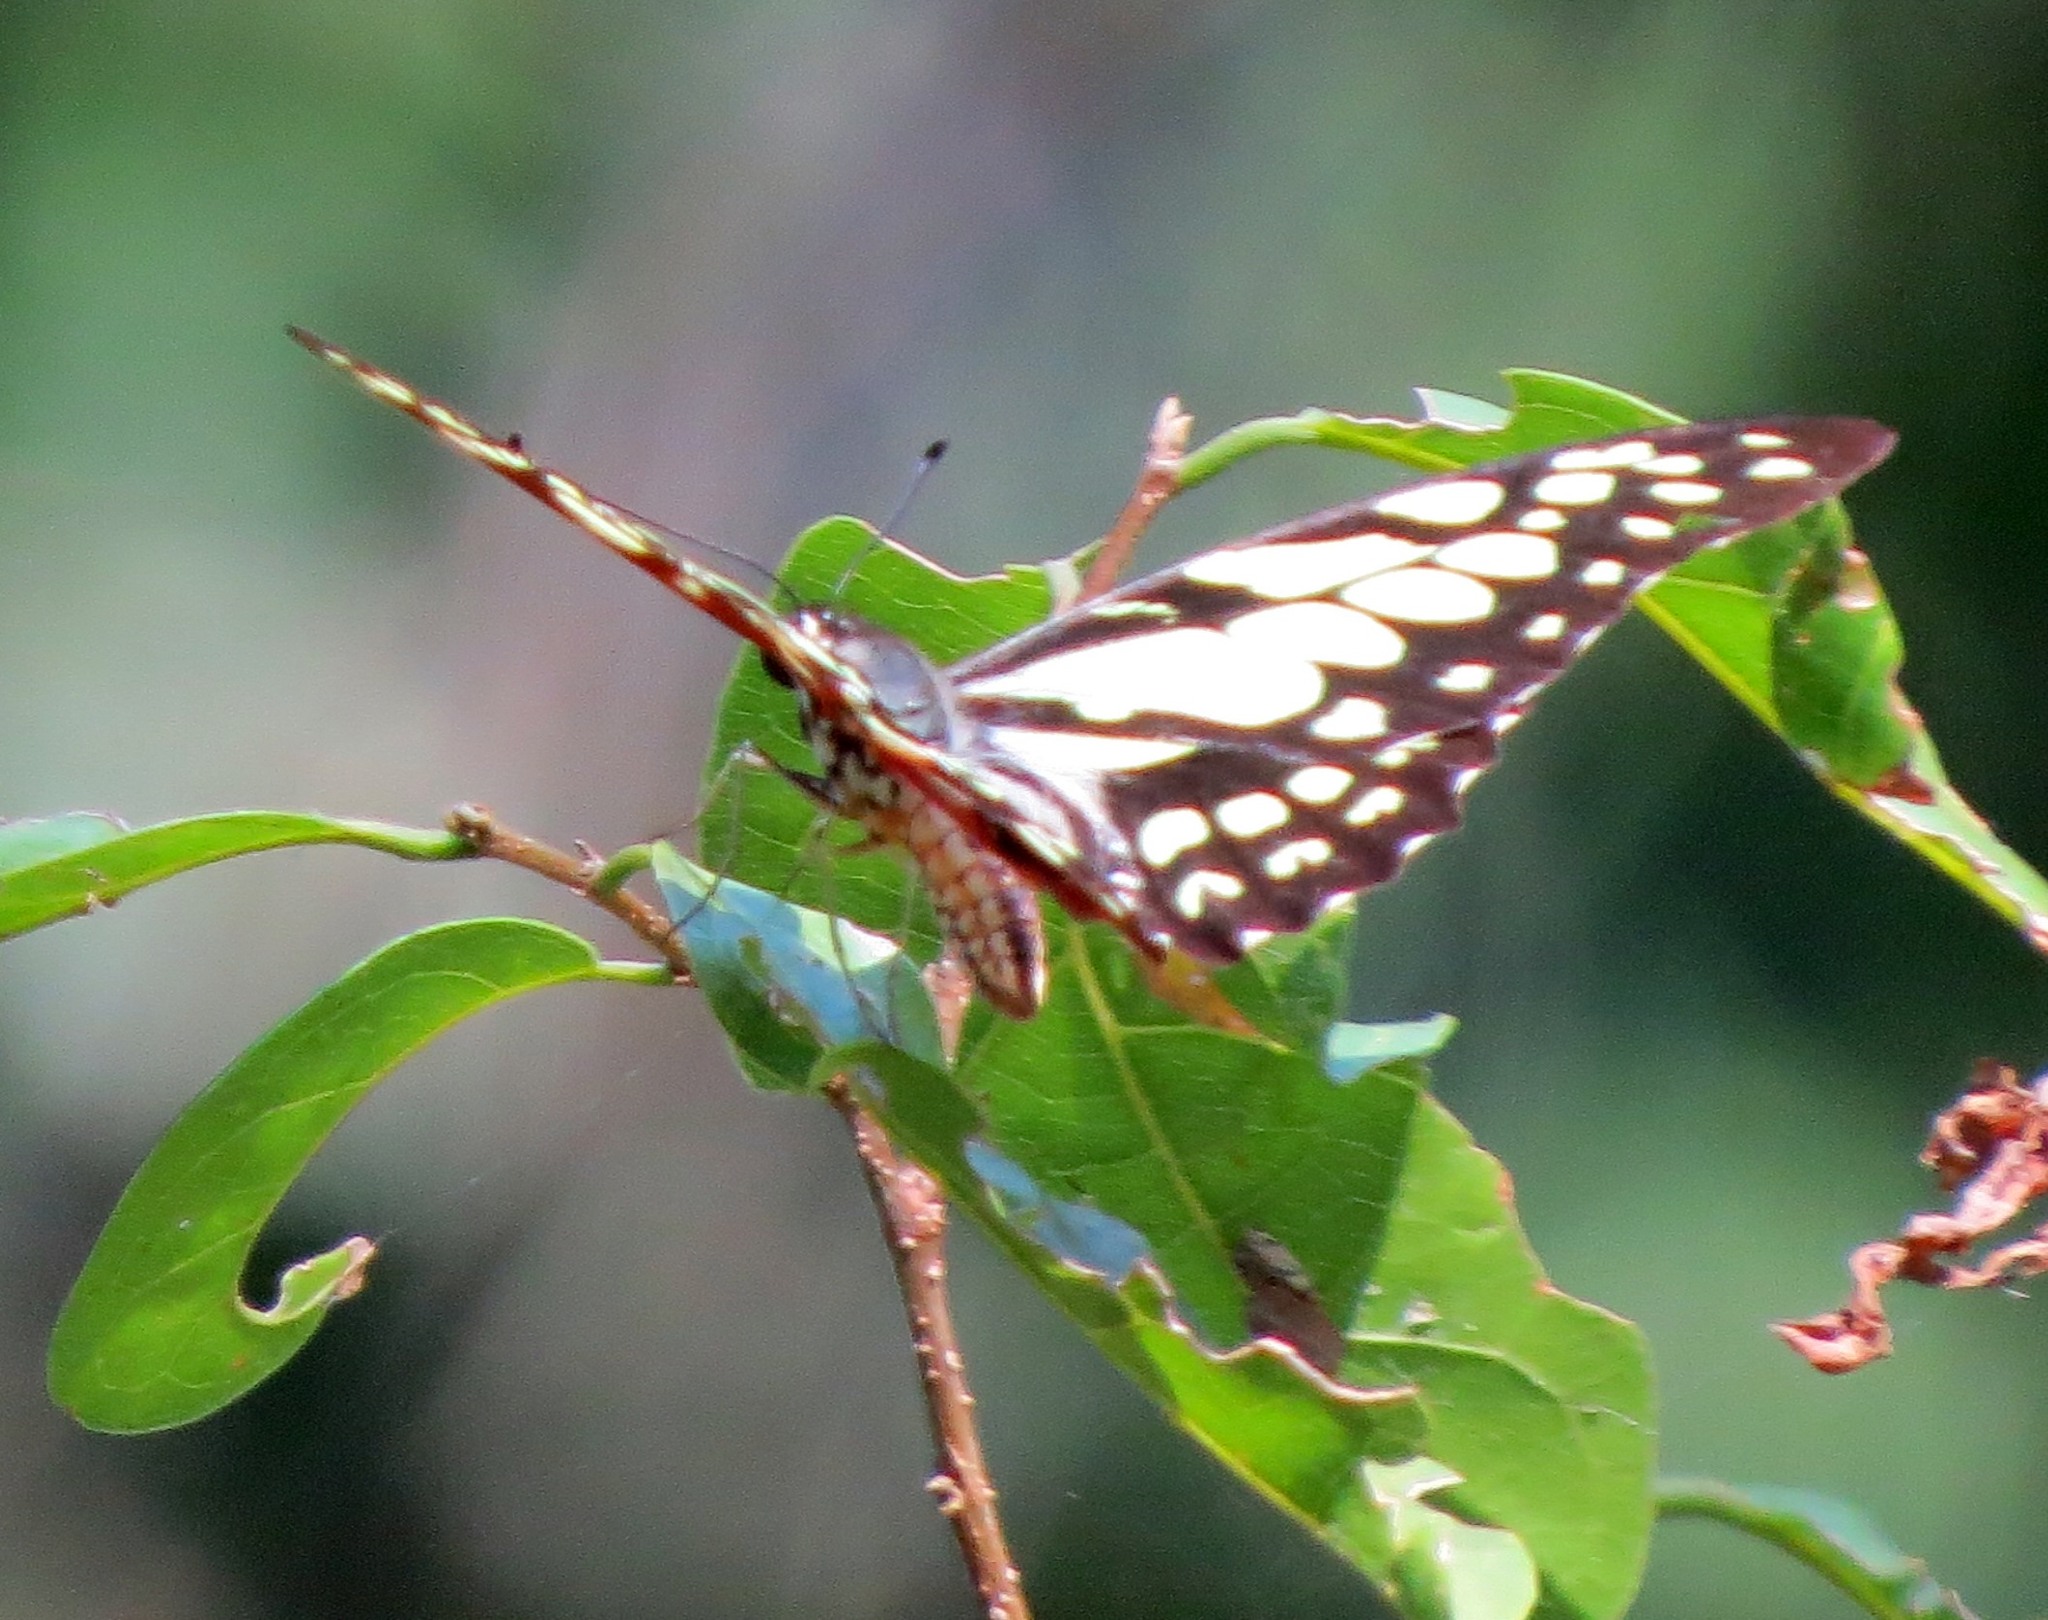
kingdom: Animalia
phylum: Arthropoda
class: Insecta
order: Lepidoptera
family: Papilionidae
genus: Graphium
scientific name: Graphium cyrnus
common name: Madagascan graphium
